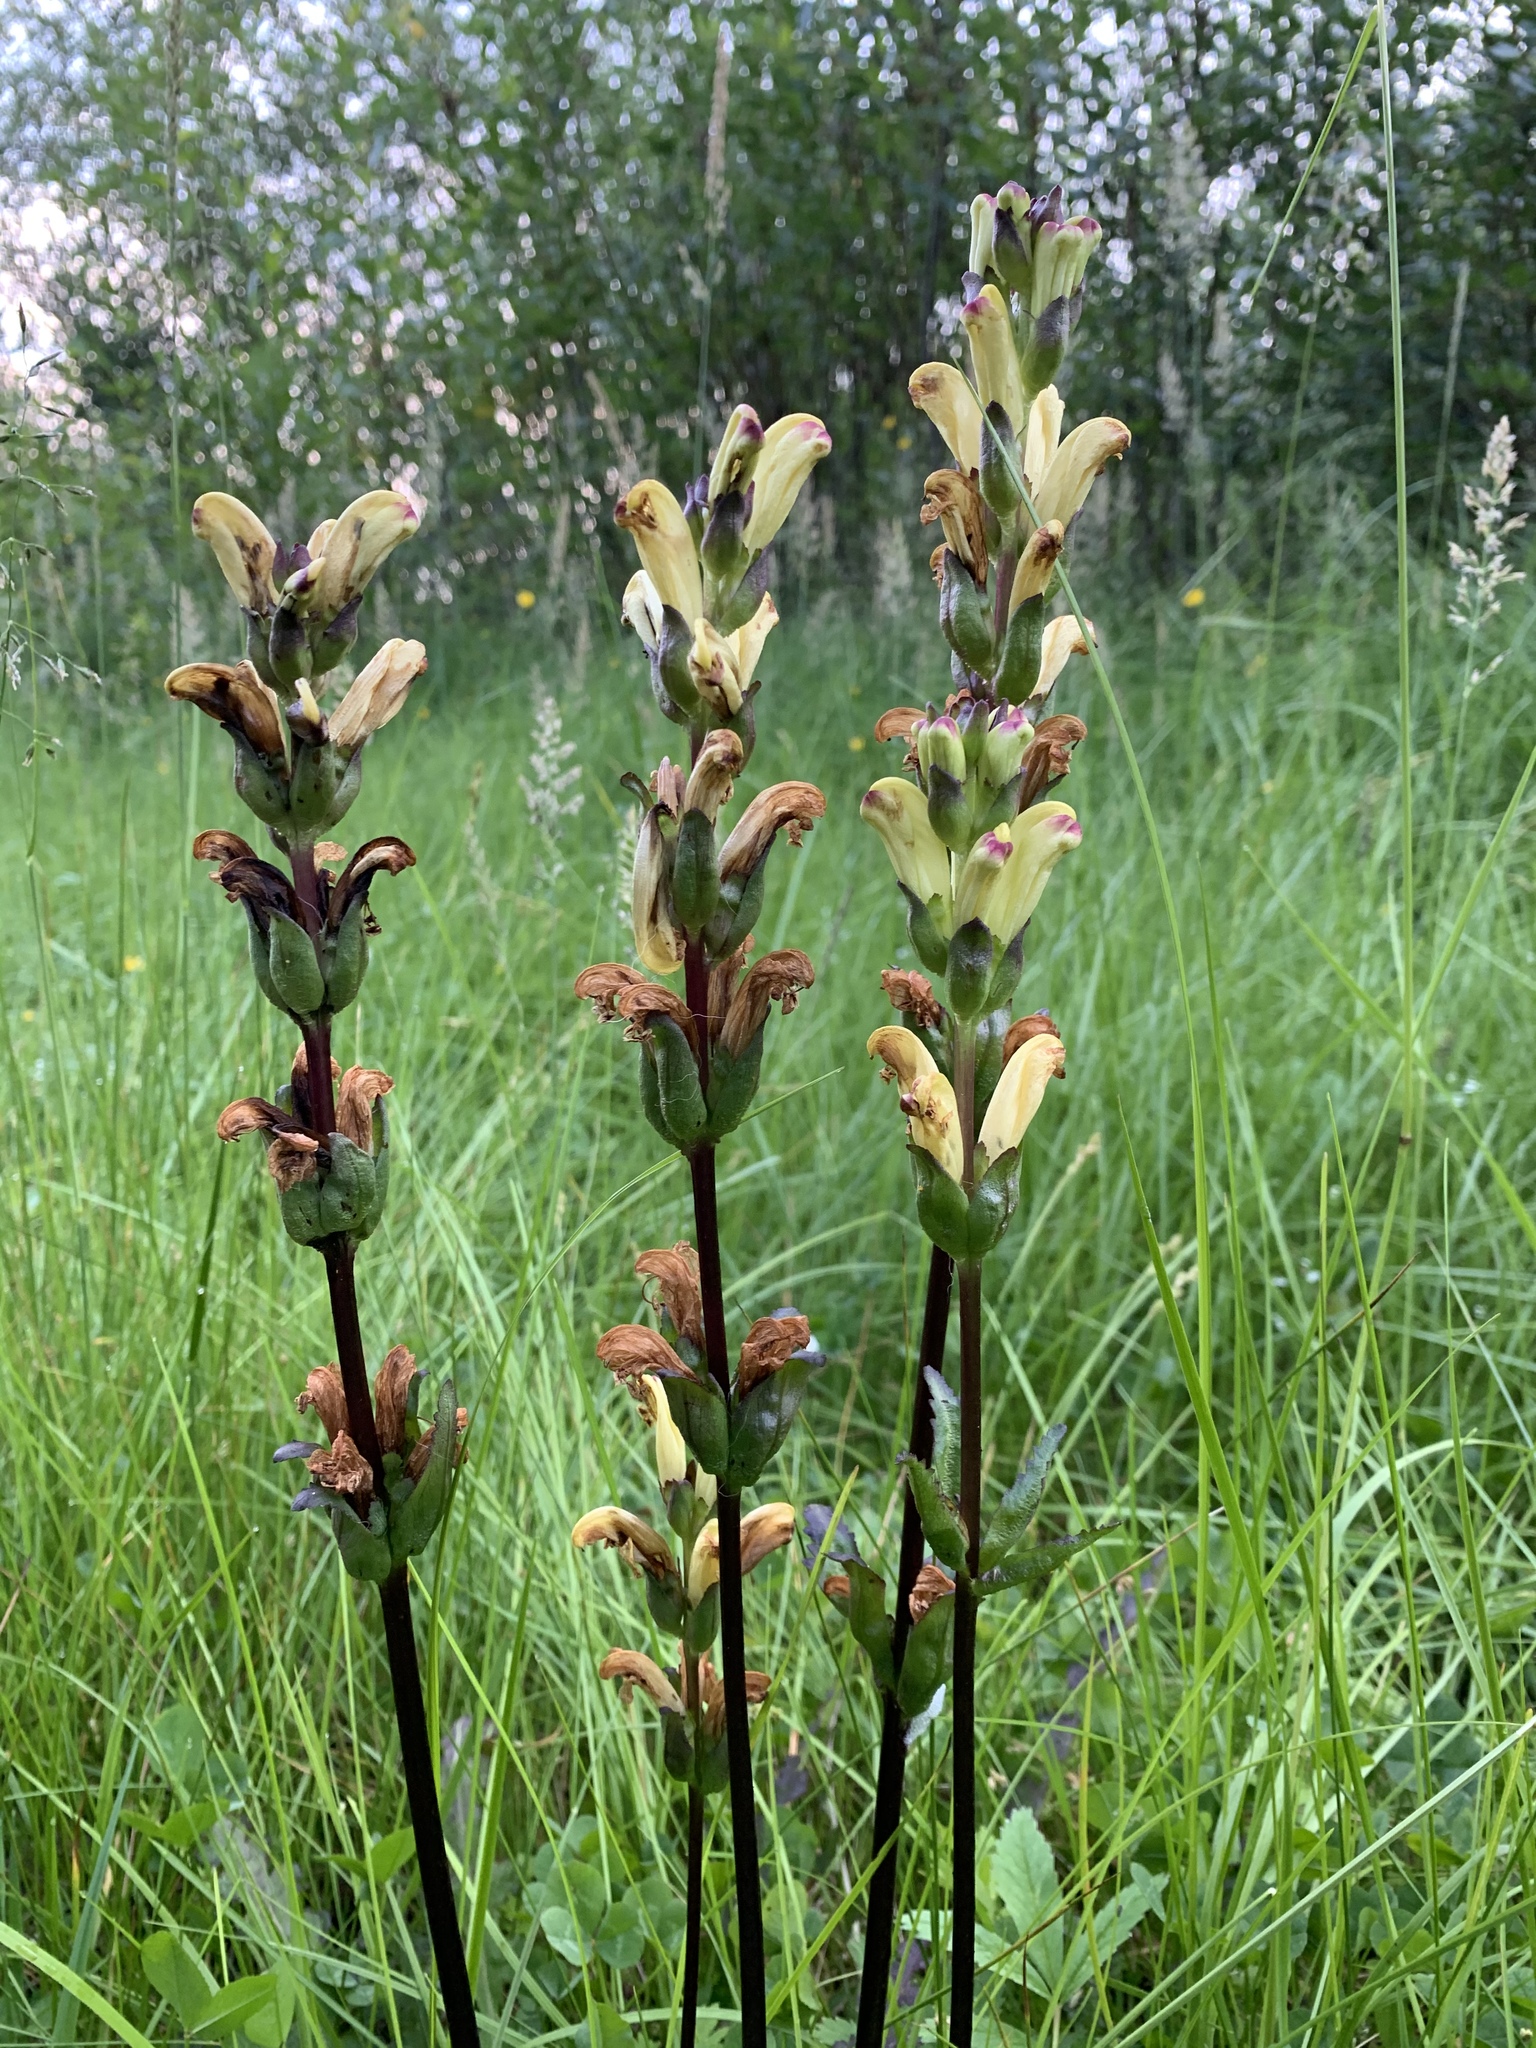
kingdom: Plantae
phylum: Tracheophyta
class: Magnoliopsida
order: Lamiales
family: Orobanchaceae
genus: Pedicularis
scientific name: Pedicularis sceptrum-carolinum
